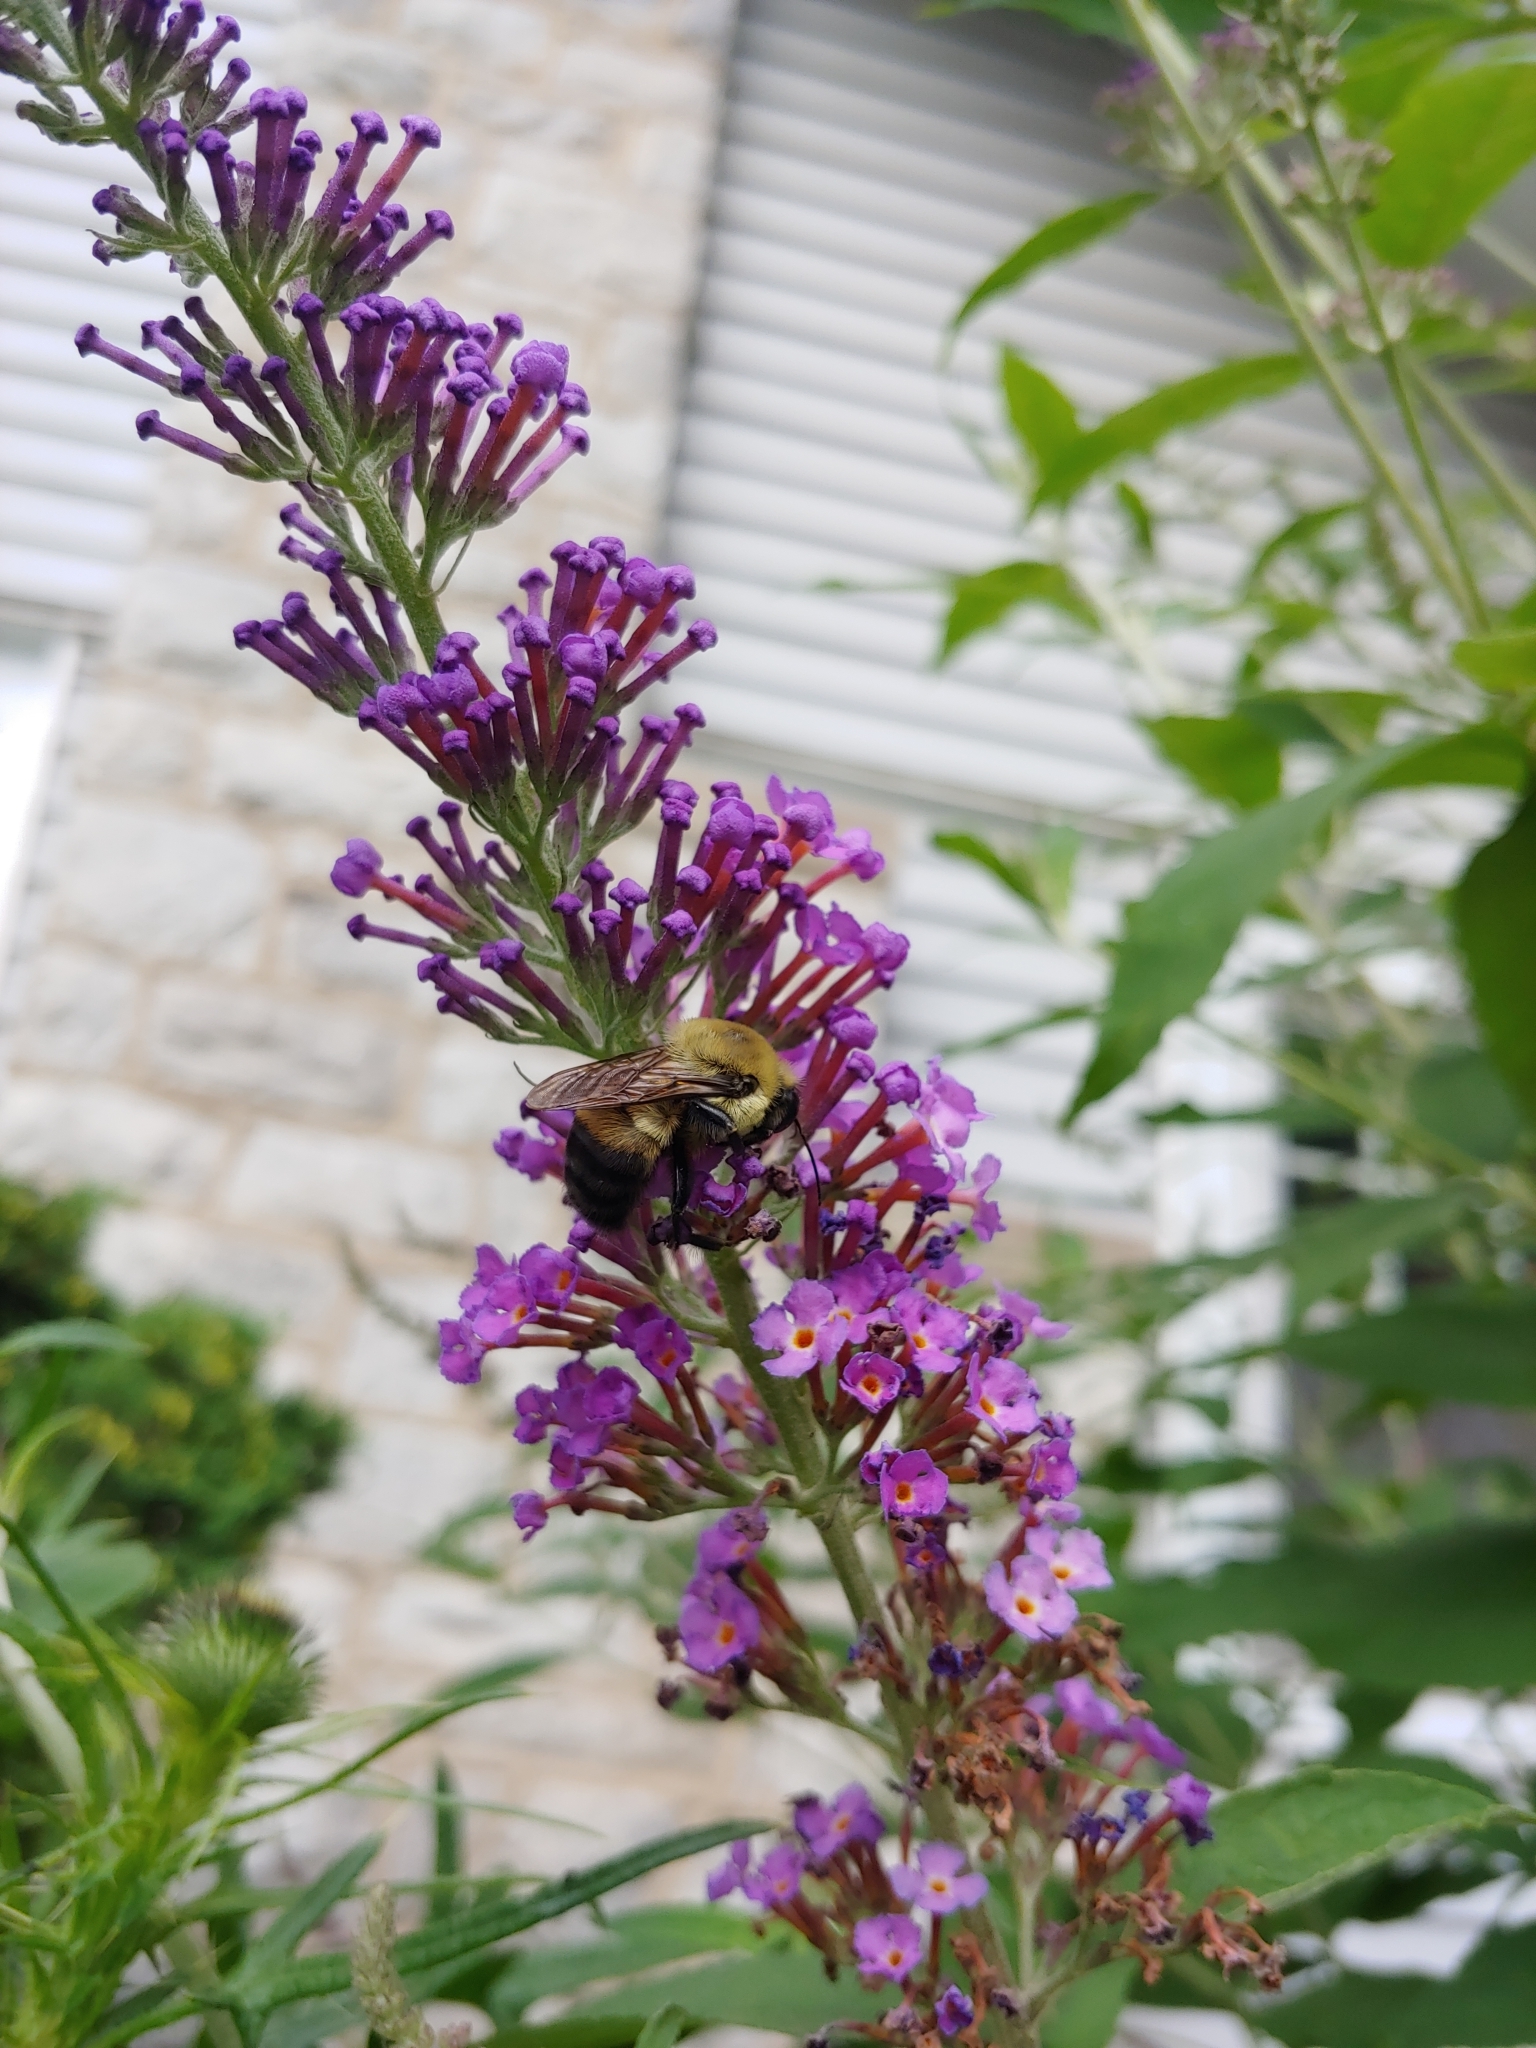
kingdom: Animalia
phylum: Arthropoda
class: Insecta
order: Hymenoptera
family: Apidae
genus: Bombus
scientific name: Bombus griseocollis
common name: Brown-belted bumble bee
